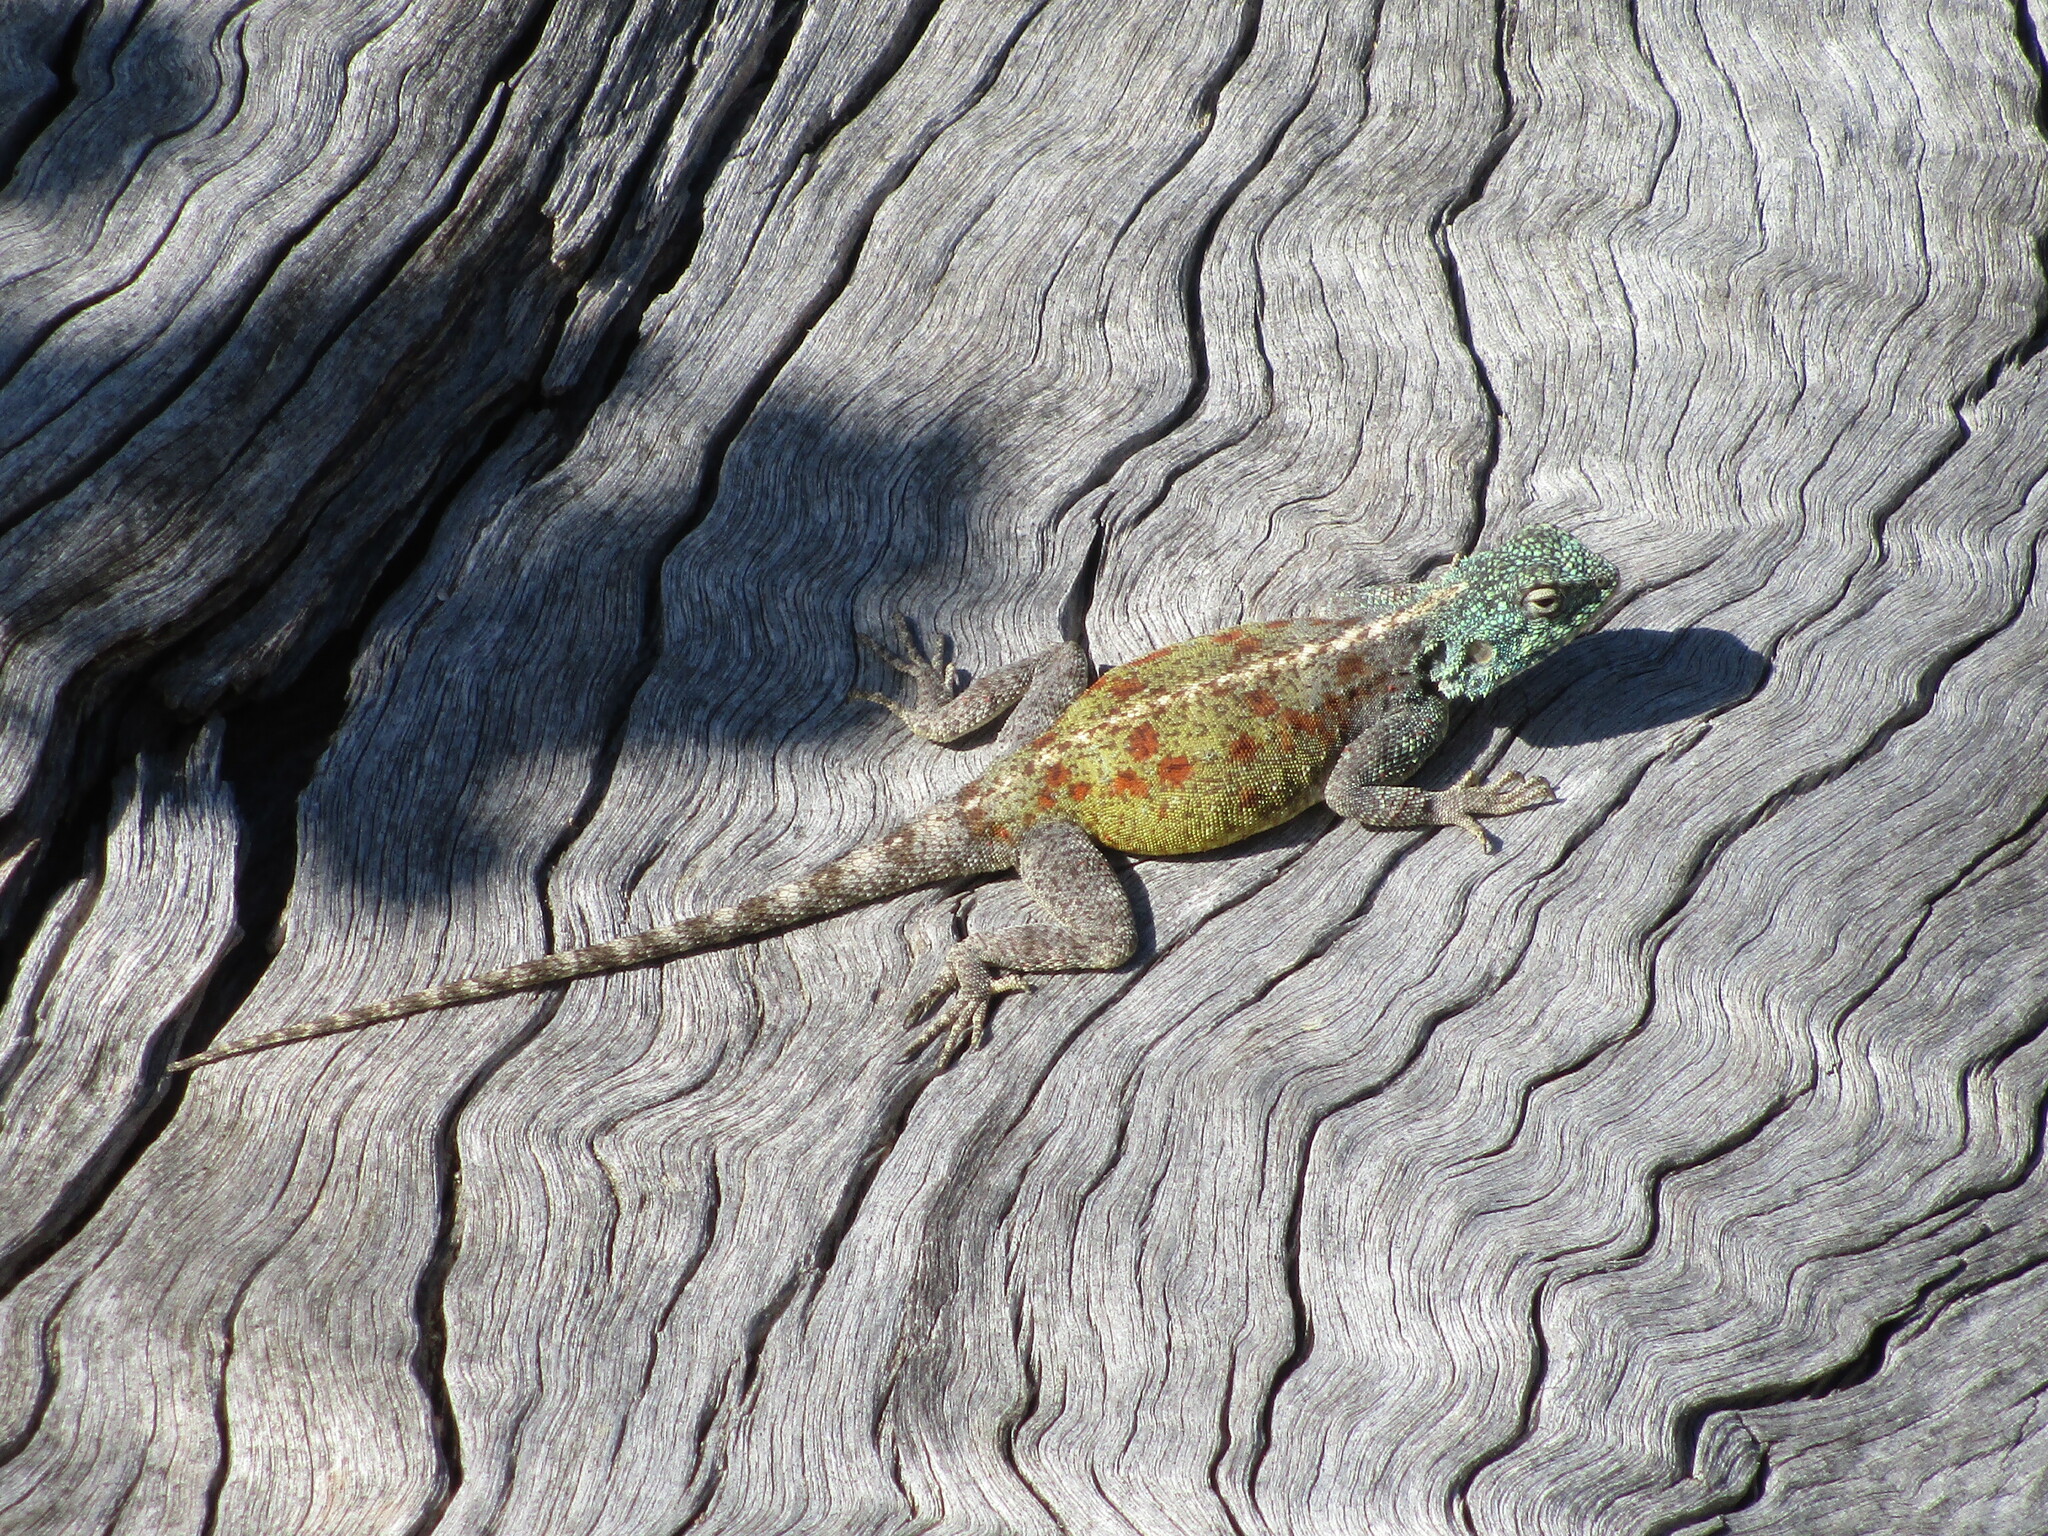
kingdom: Animalia
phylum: Chordata
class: Squamata
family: Agamidae
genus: Agama
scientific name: Agama atra
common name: Southern african rock agama
